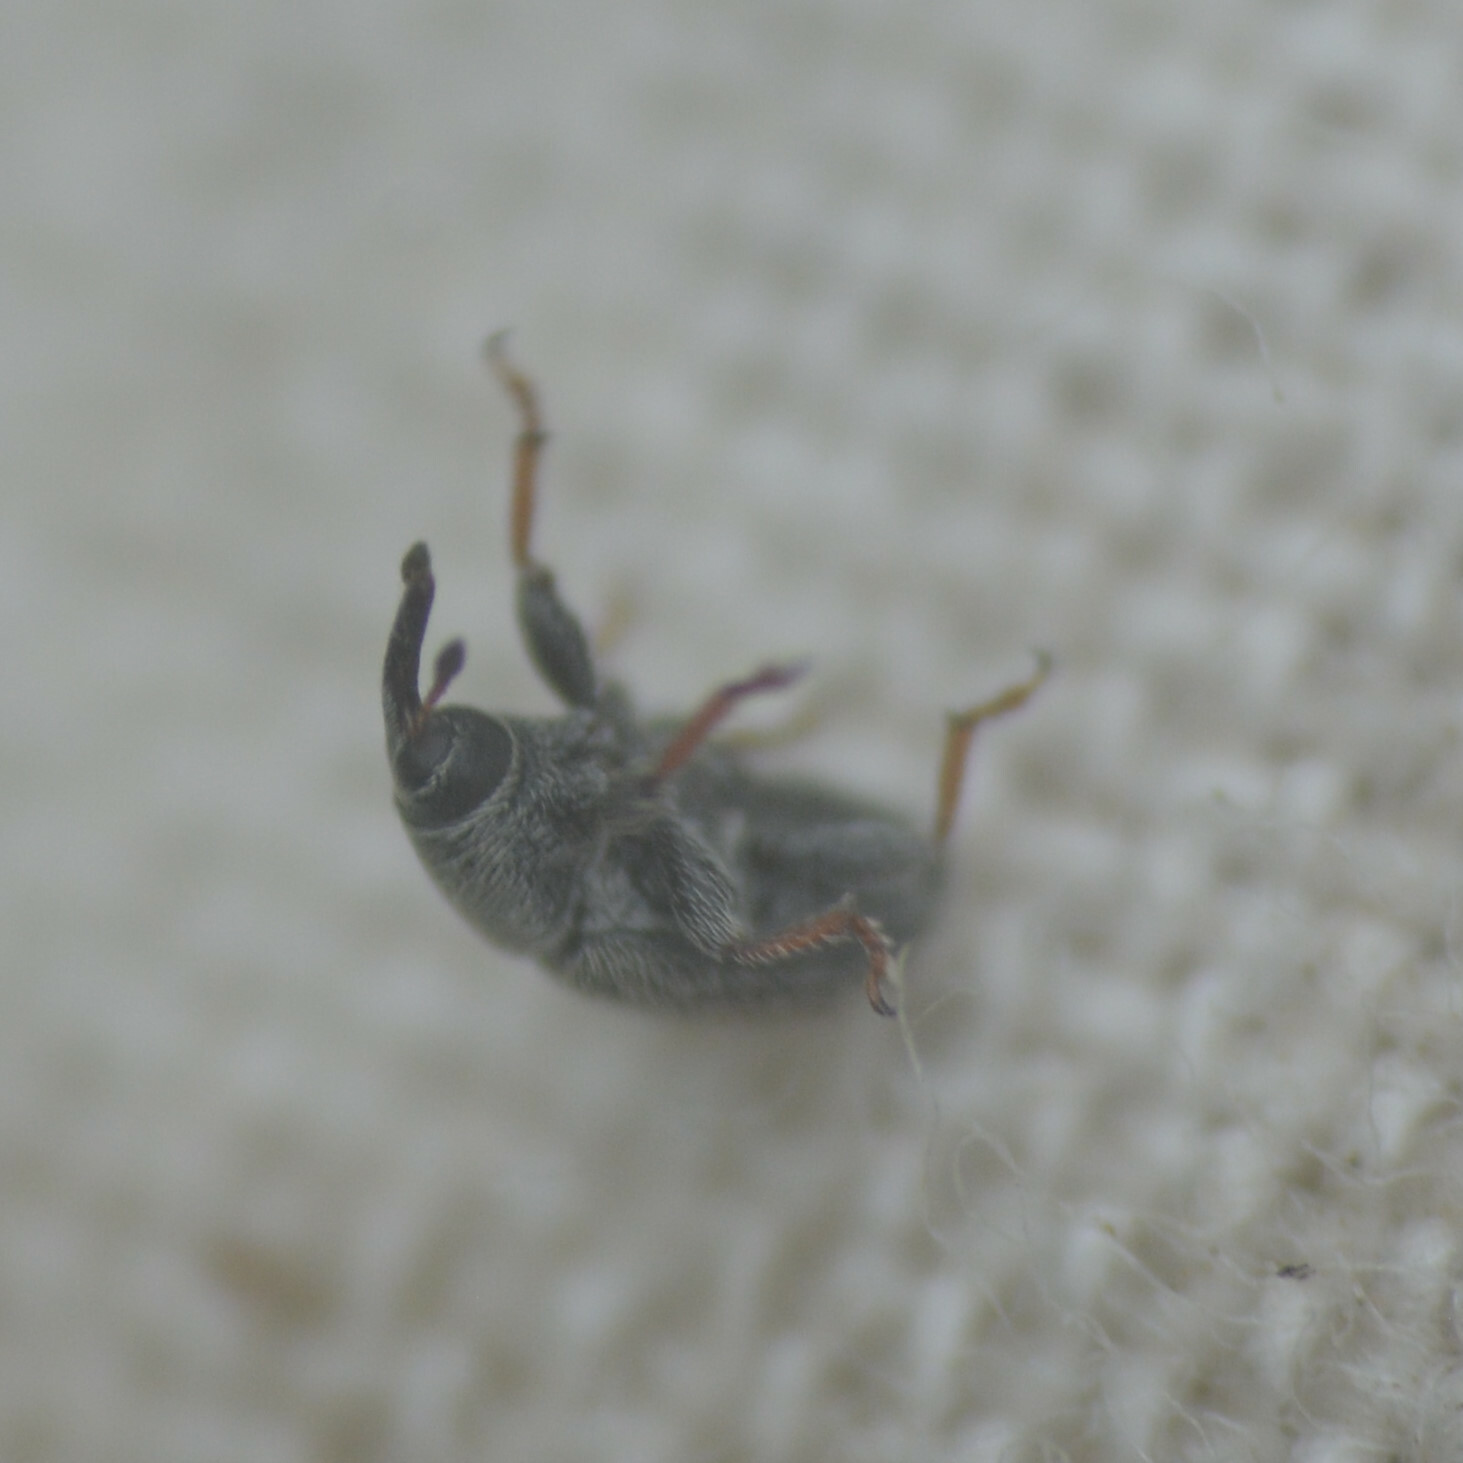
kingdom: Animalia
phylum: Arthropoda
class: Insecta
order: Coleoptera
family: Curculionidae
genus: Mecinus
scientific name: Mecinus pascuorum
